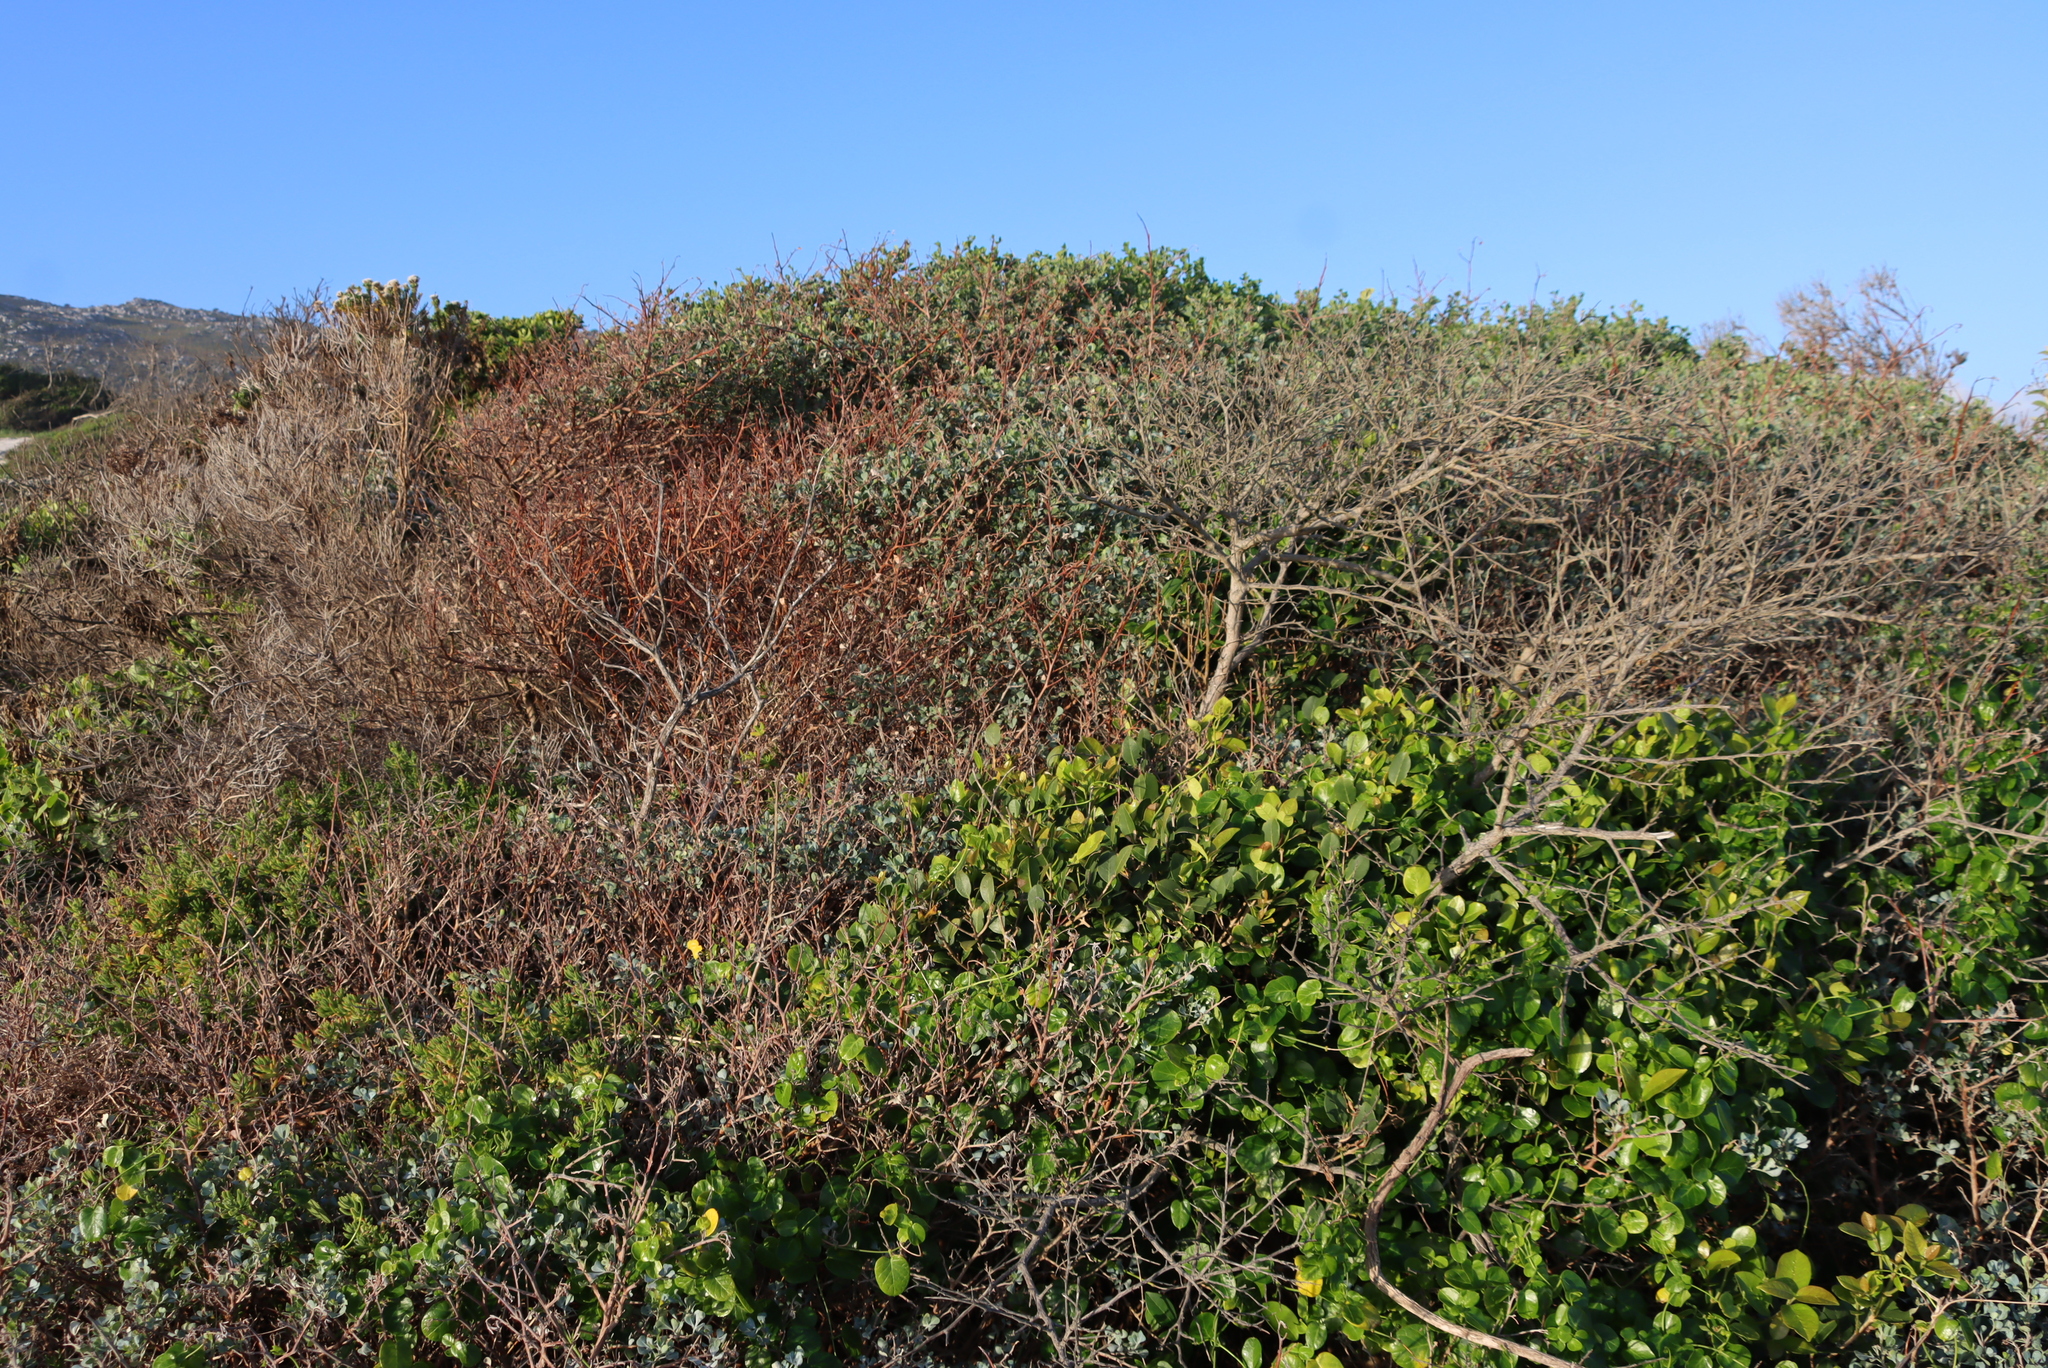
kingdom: Plantae
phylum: Tracheophyta
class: Magnoliopsida
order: Sapindales
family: Anacardiaceae
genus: Searsia
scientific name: Searsia glauca
